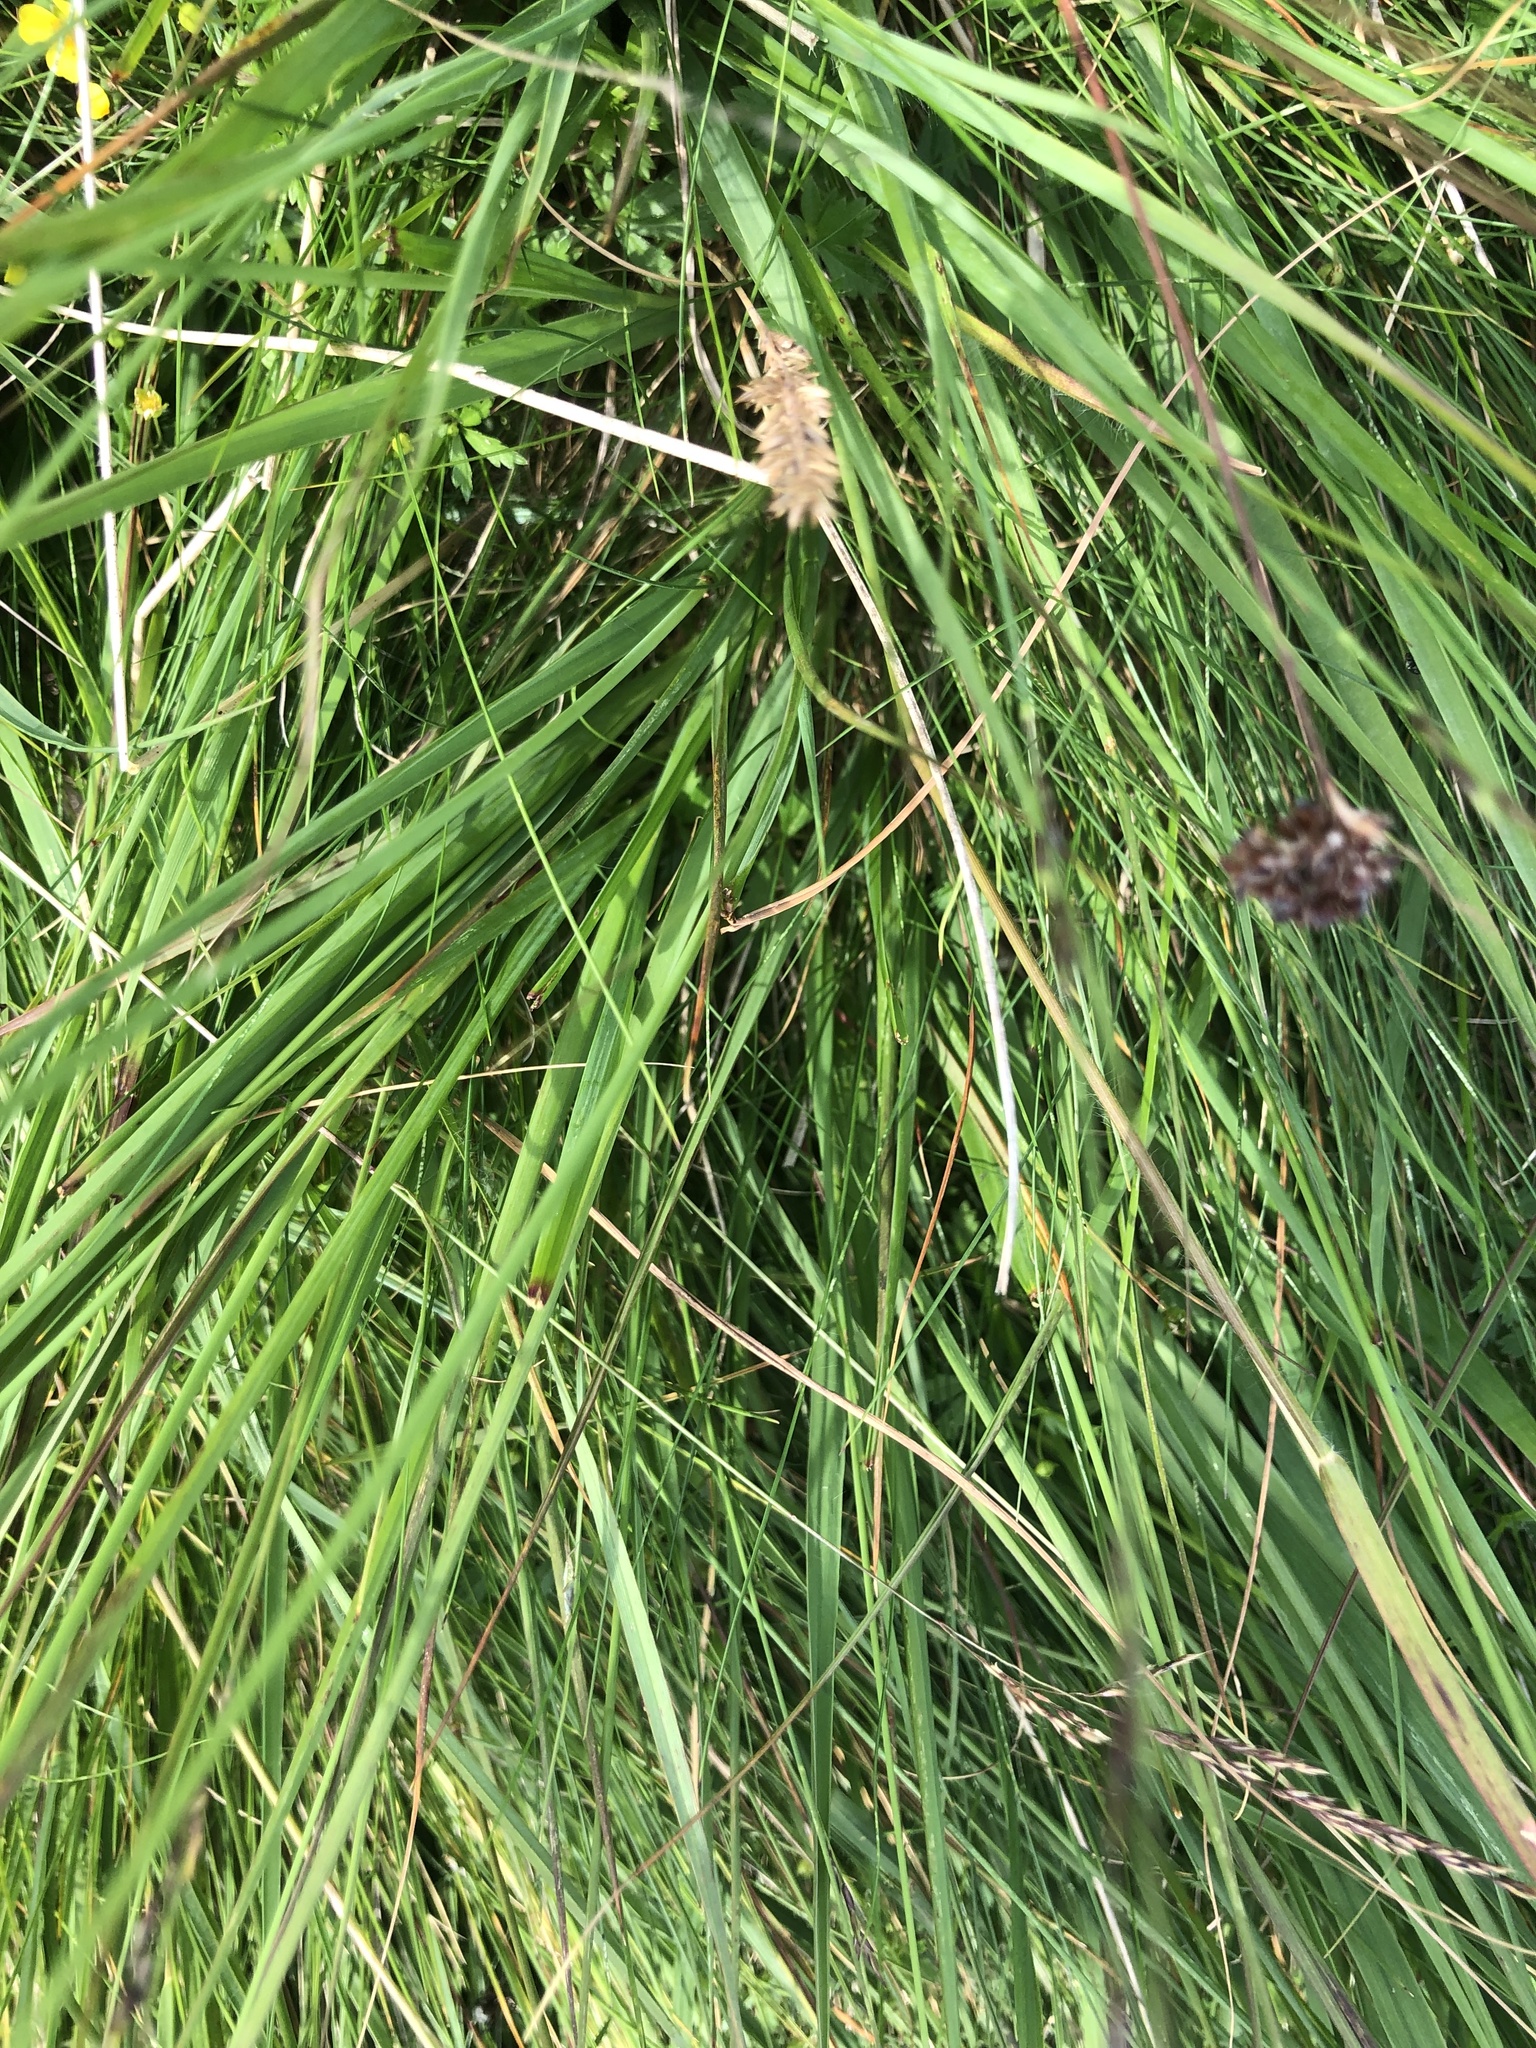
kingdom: Plantae
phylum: Tracheophyta
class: Liliopsida
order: Poales
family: Poaceae
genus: Molinia
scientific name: Molinia caerulea
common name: Purple moor-grass
